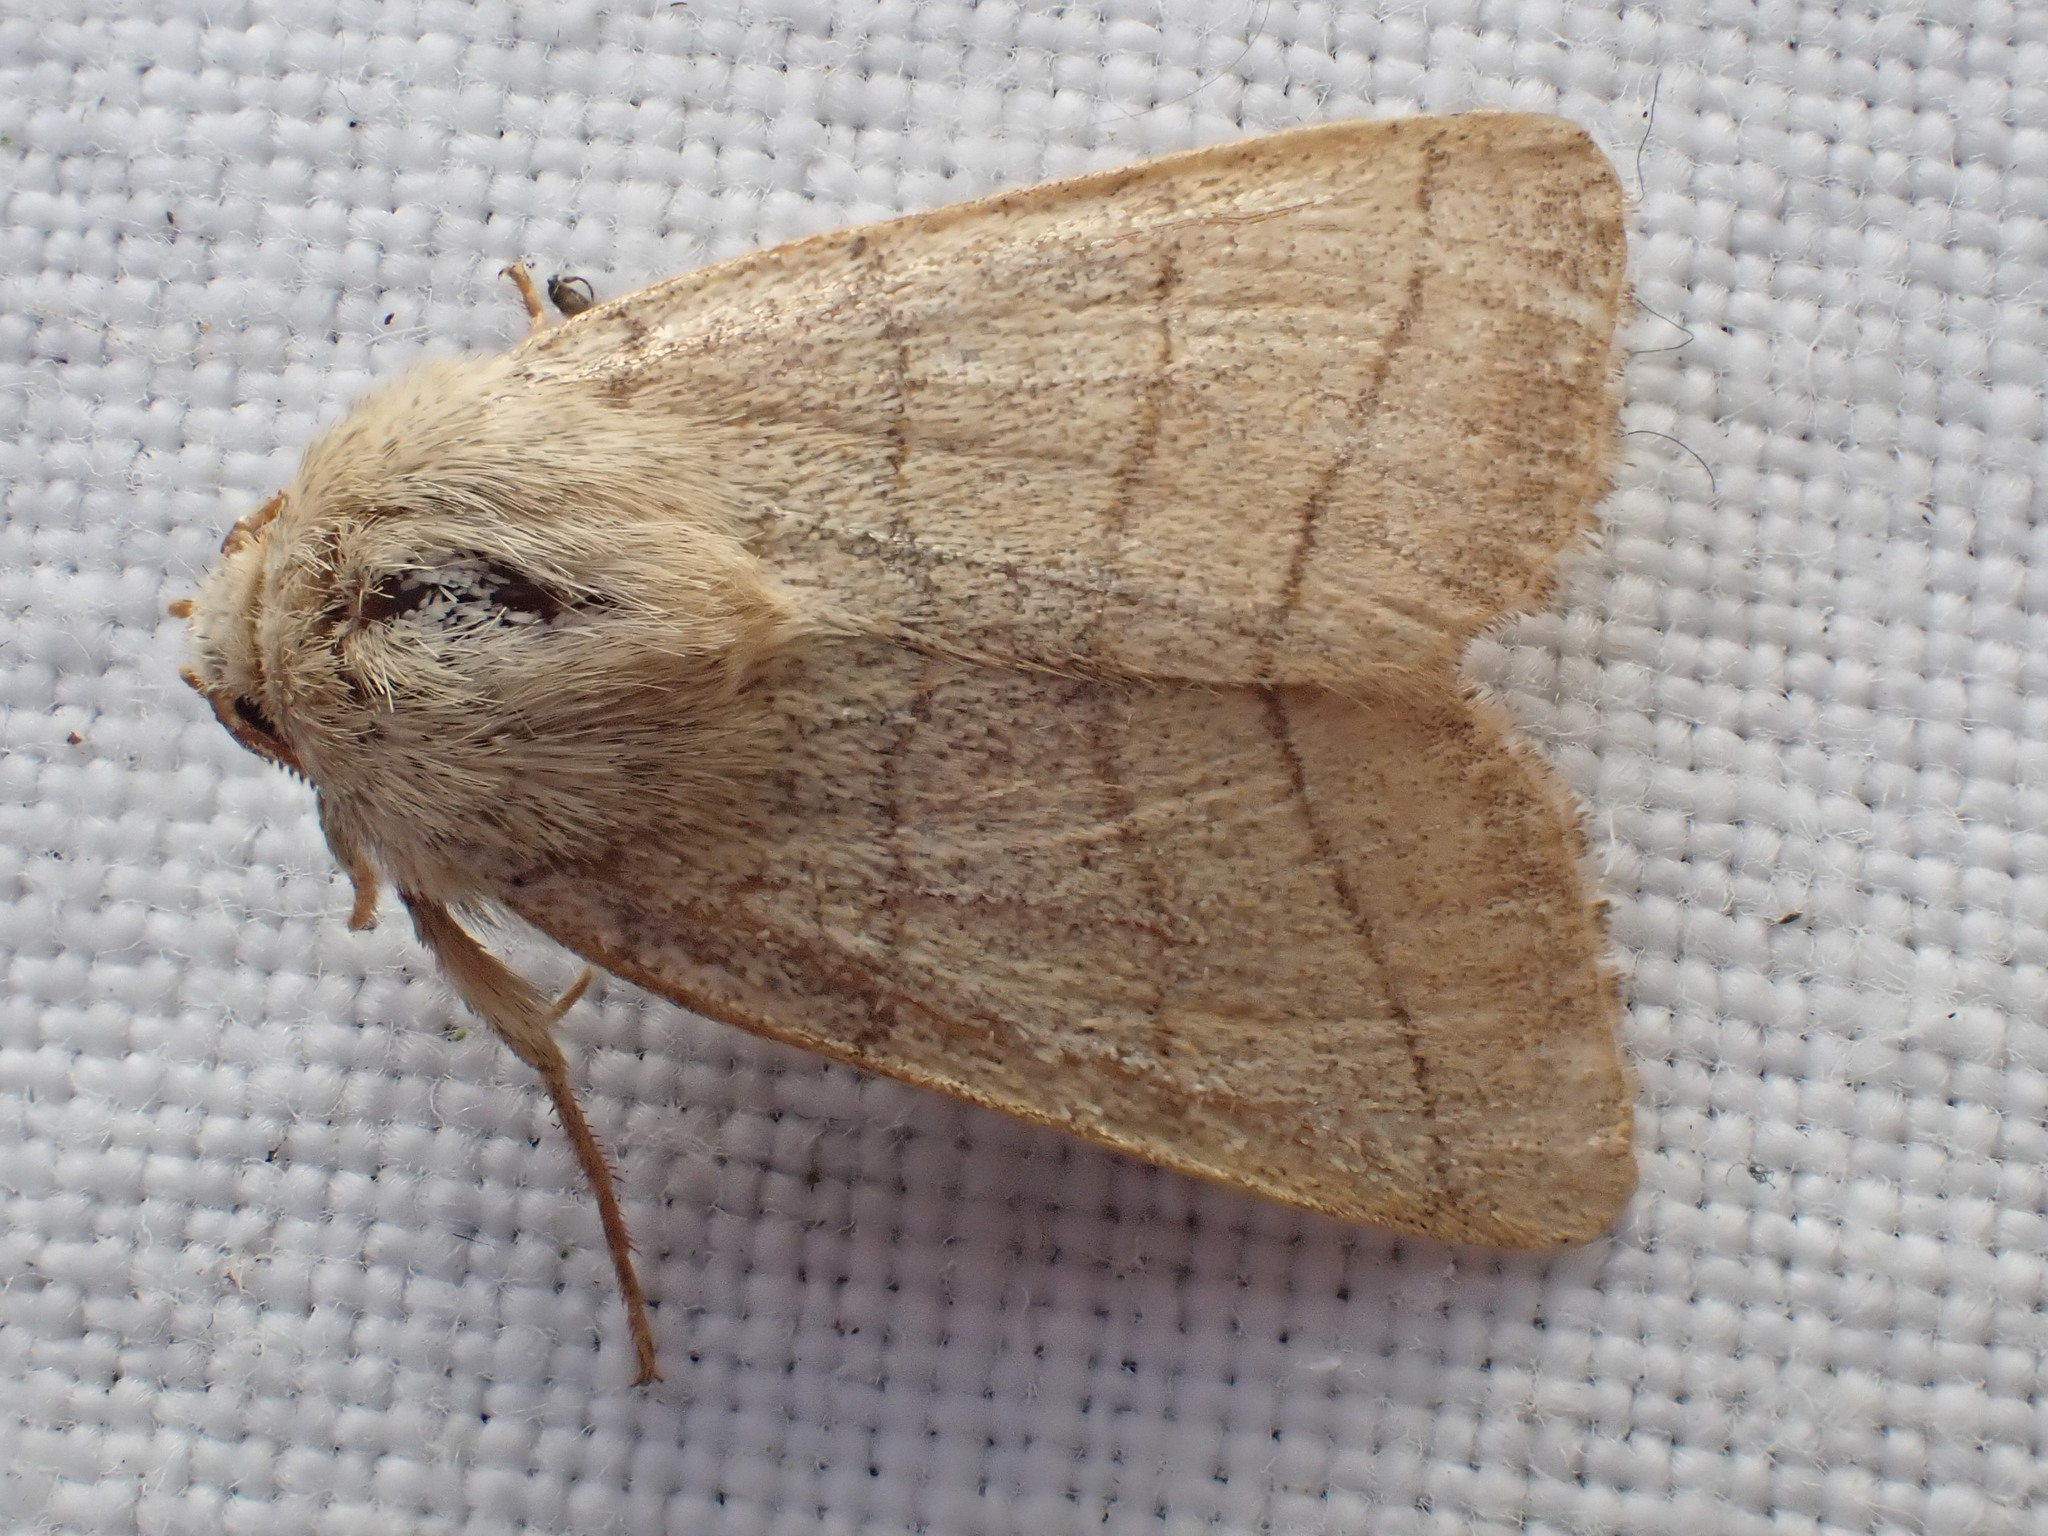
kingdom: Animalia
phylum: Arthropoda
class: Insecta
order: Lepidoptera
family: Noctuidae
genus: Charanyca
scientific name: Charanyca trigrammica
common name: Treble lines
